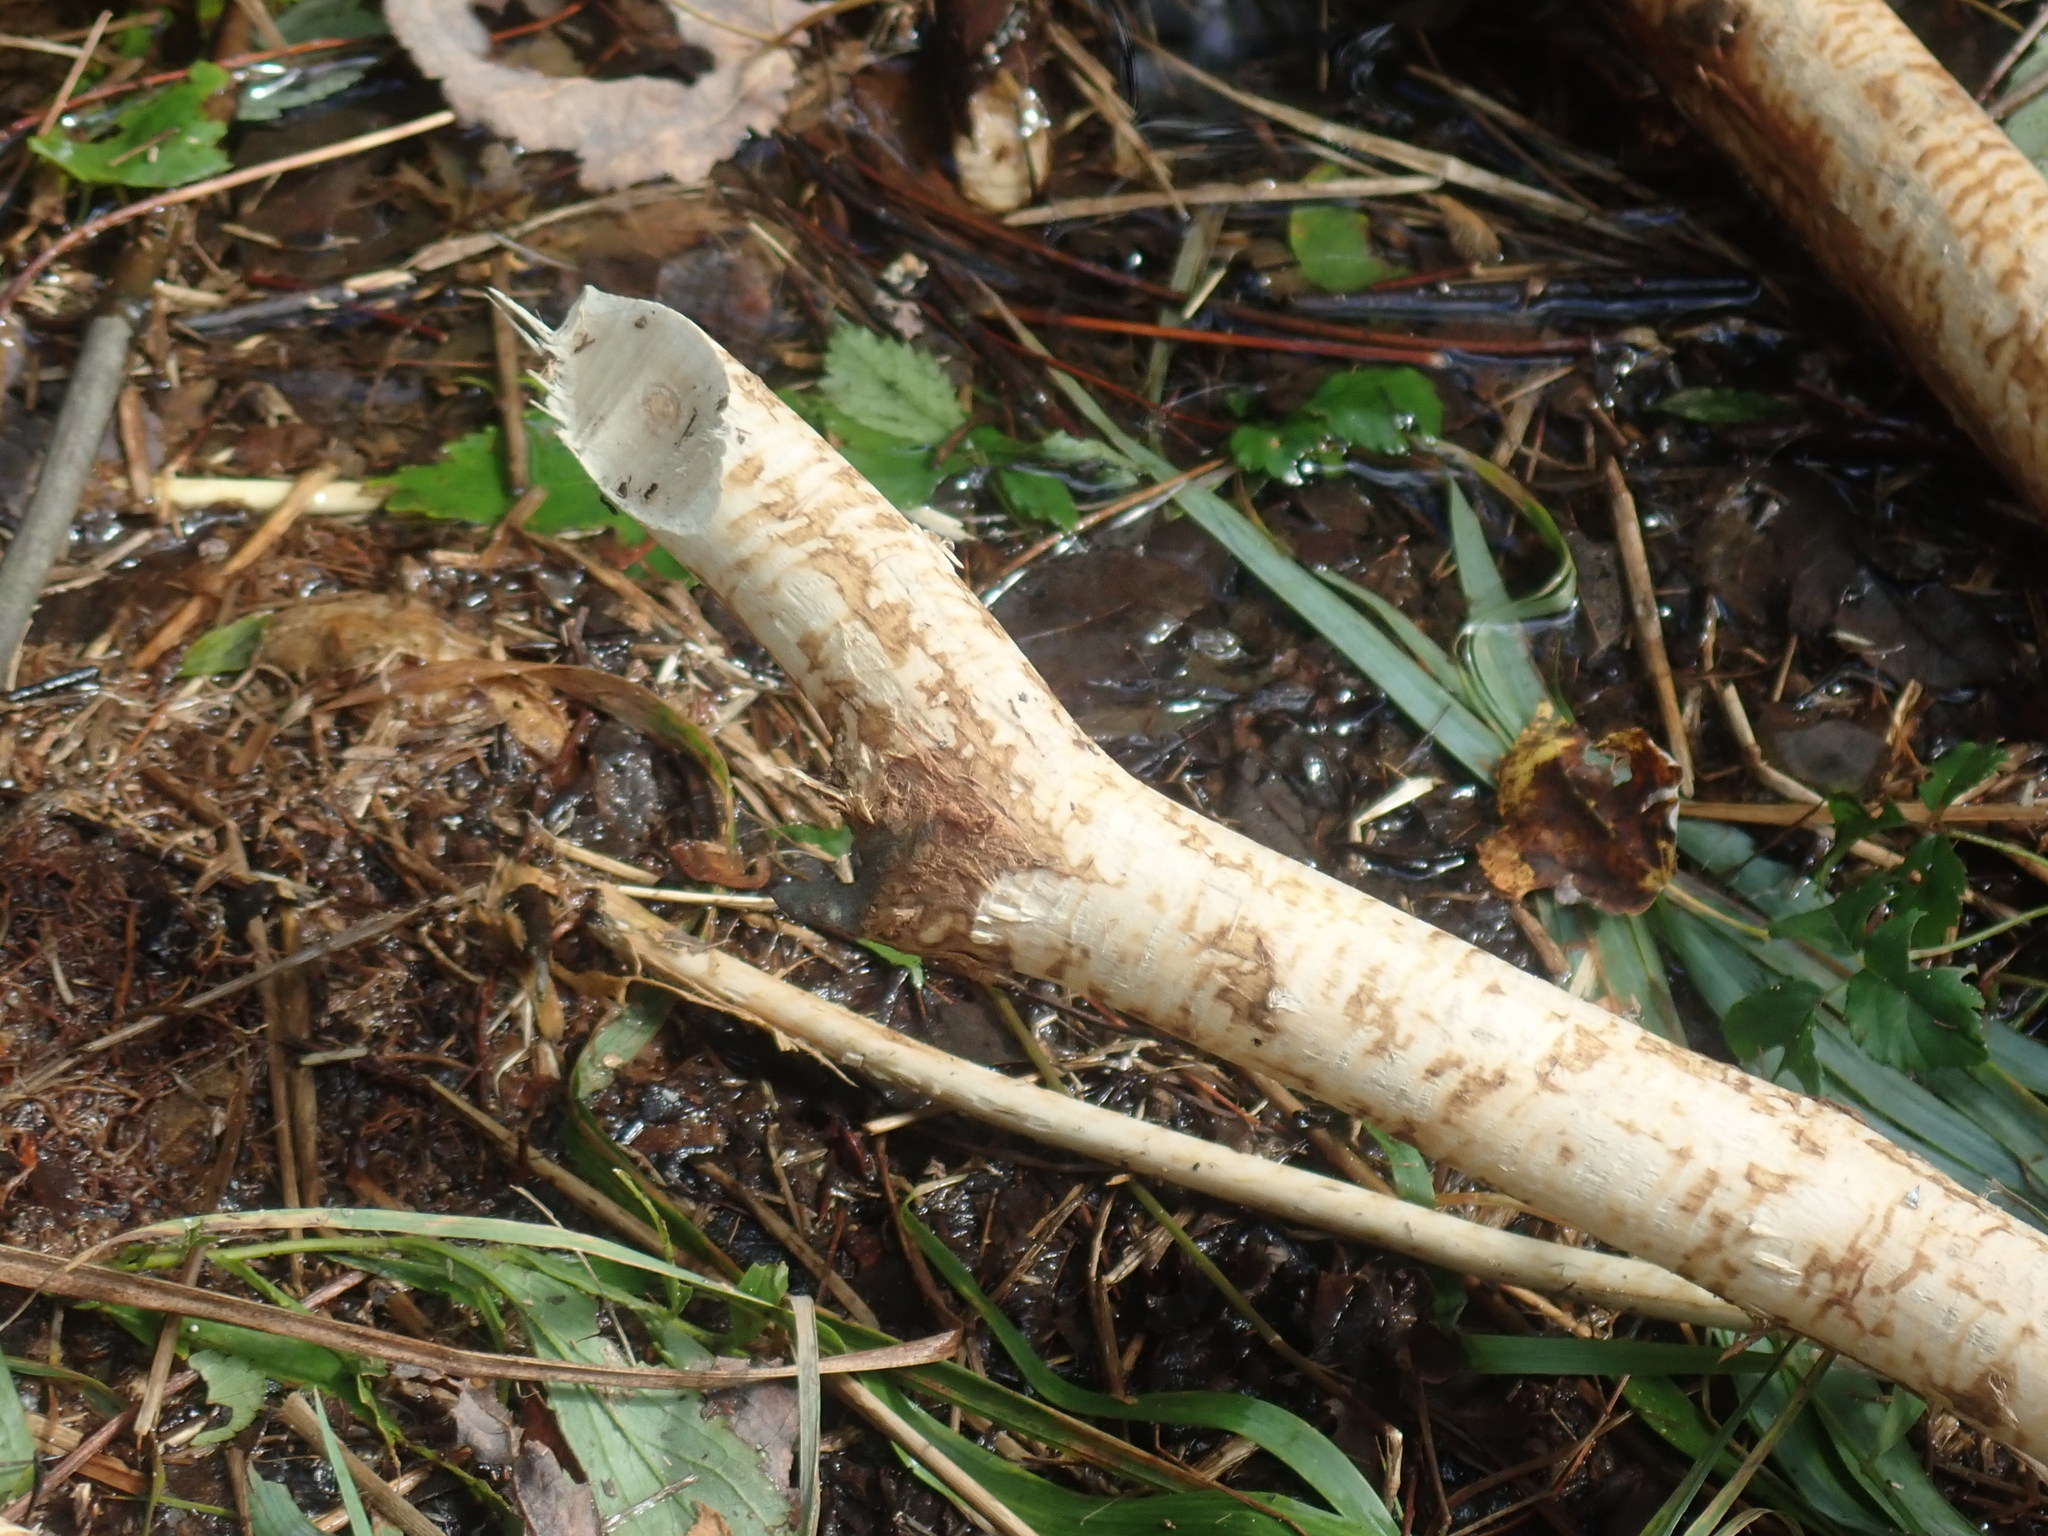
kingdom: Animalia
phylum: Chordata
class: Mammalia
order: Rodentia
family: Castoridae
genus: Castor
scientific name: Castor canadensis
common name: American beaver
